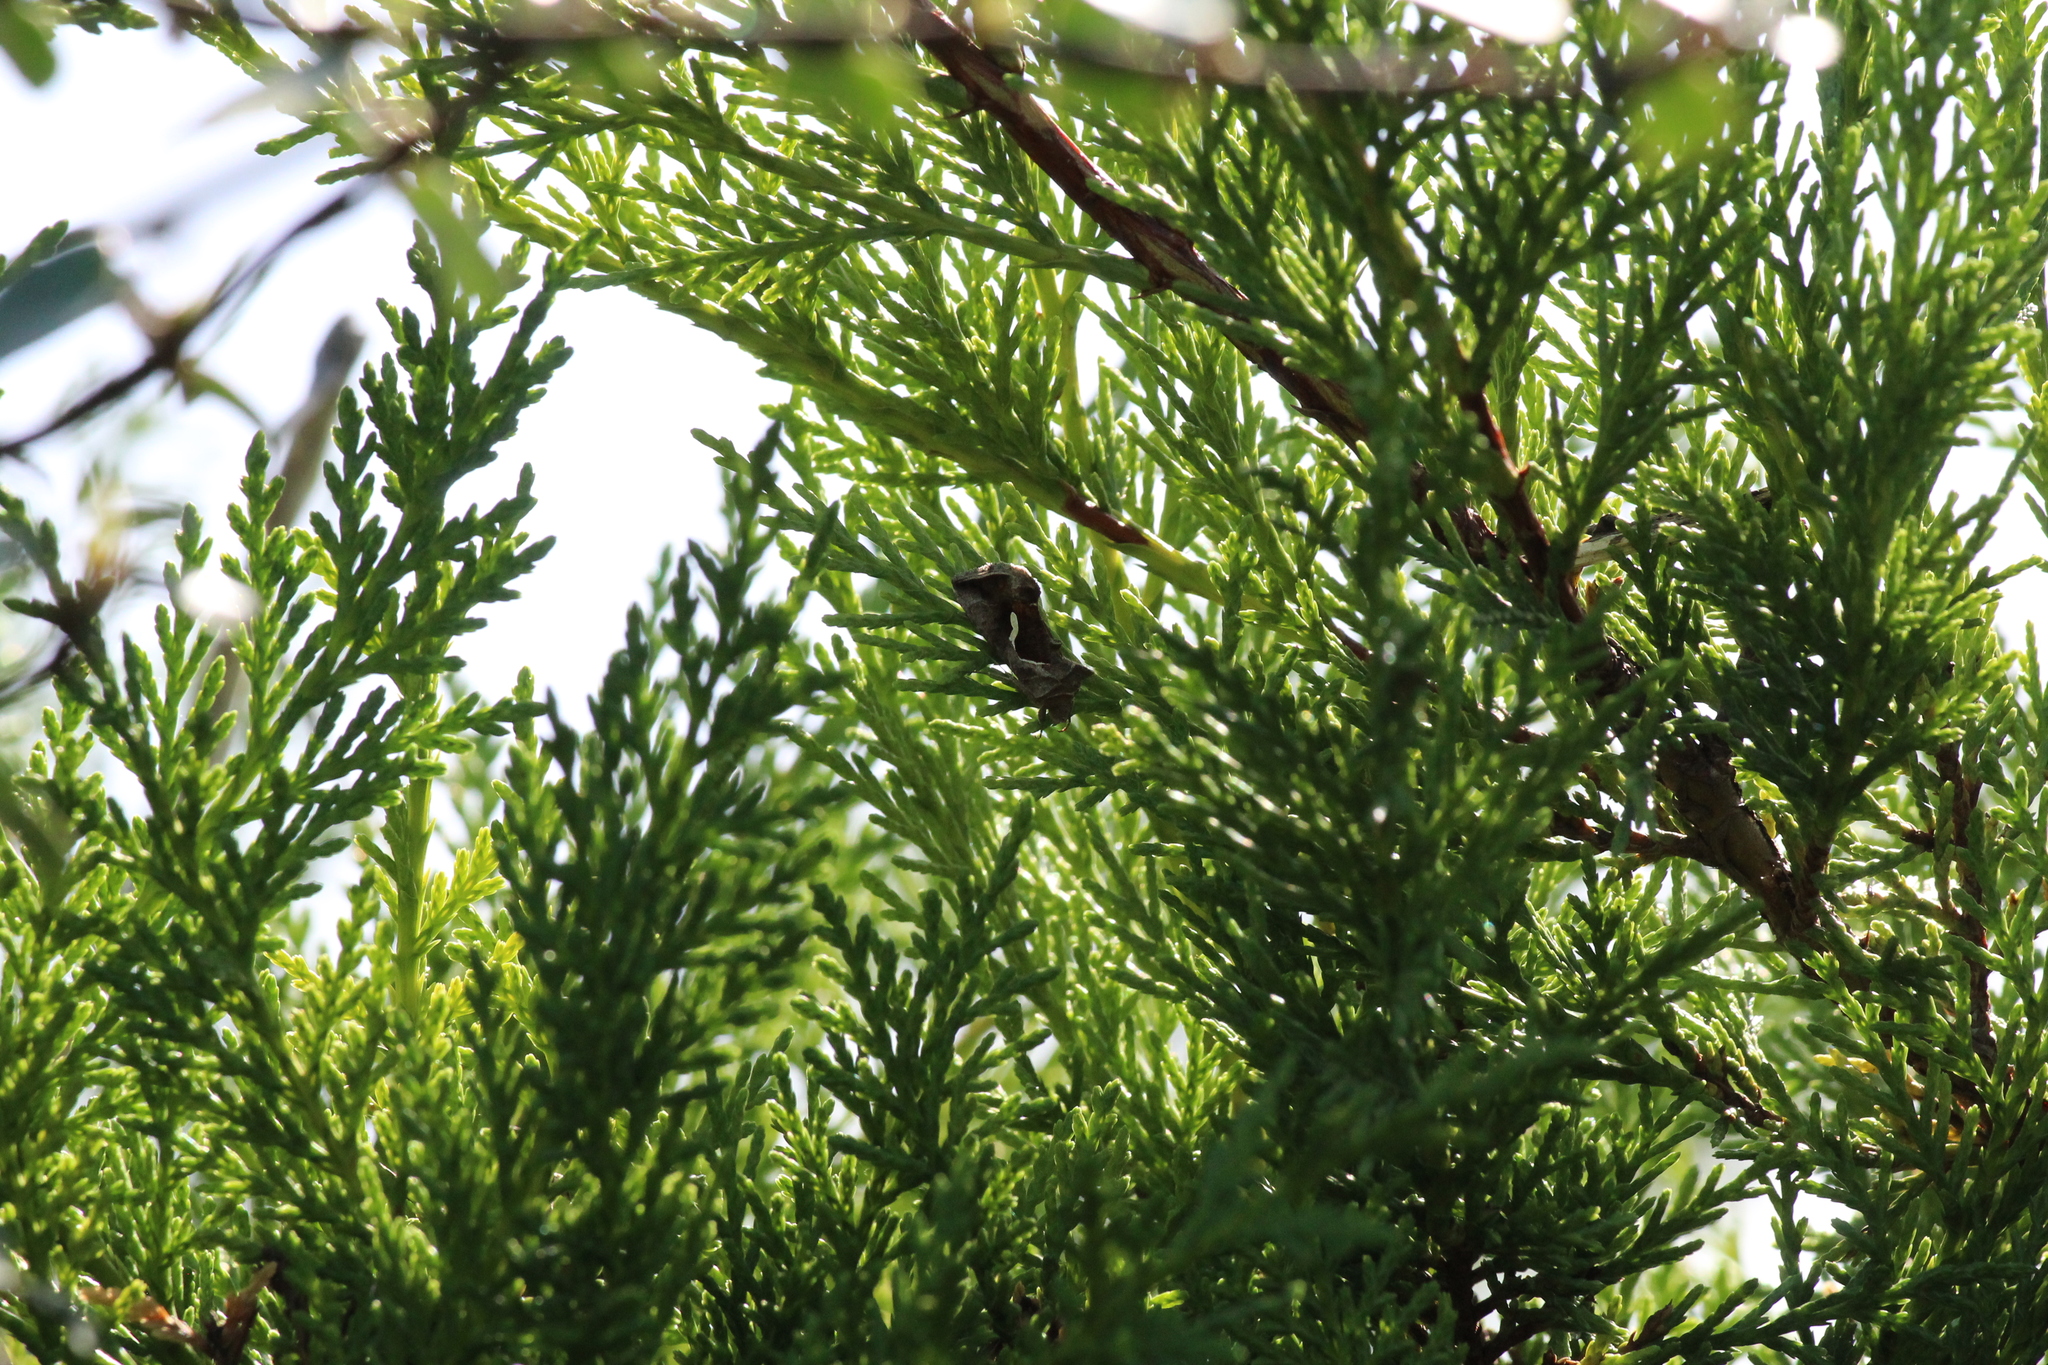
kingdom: Animalia
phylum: Arthropoda
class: Insecta
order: Lepidoptera
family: Noctuidae
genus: Macdunnoughia
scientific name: Macdunnoughia confusa
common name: Dewick's plusia
